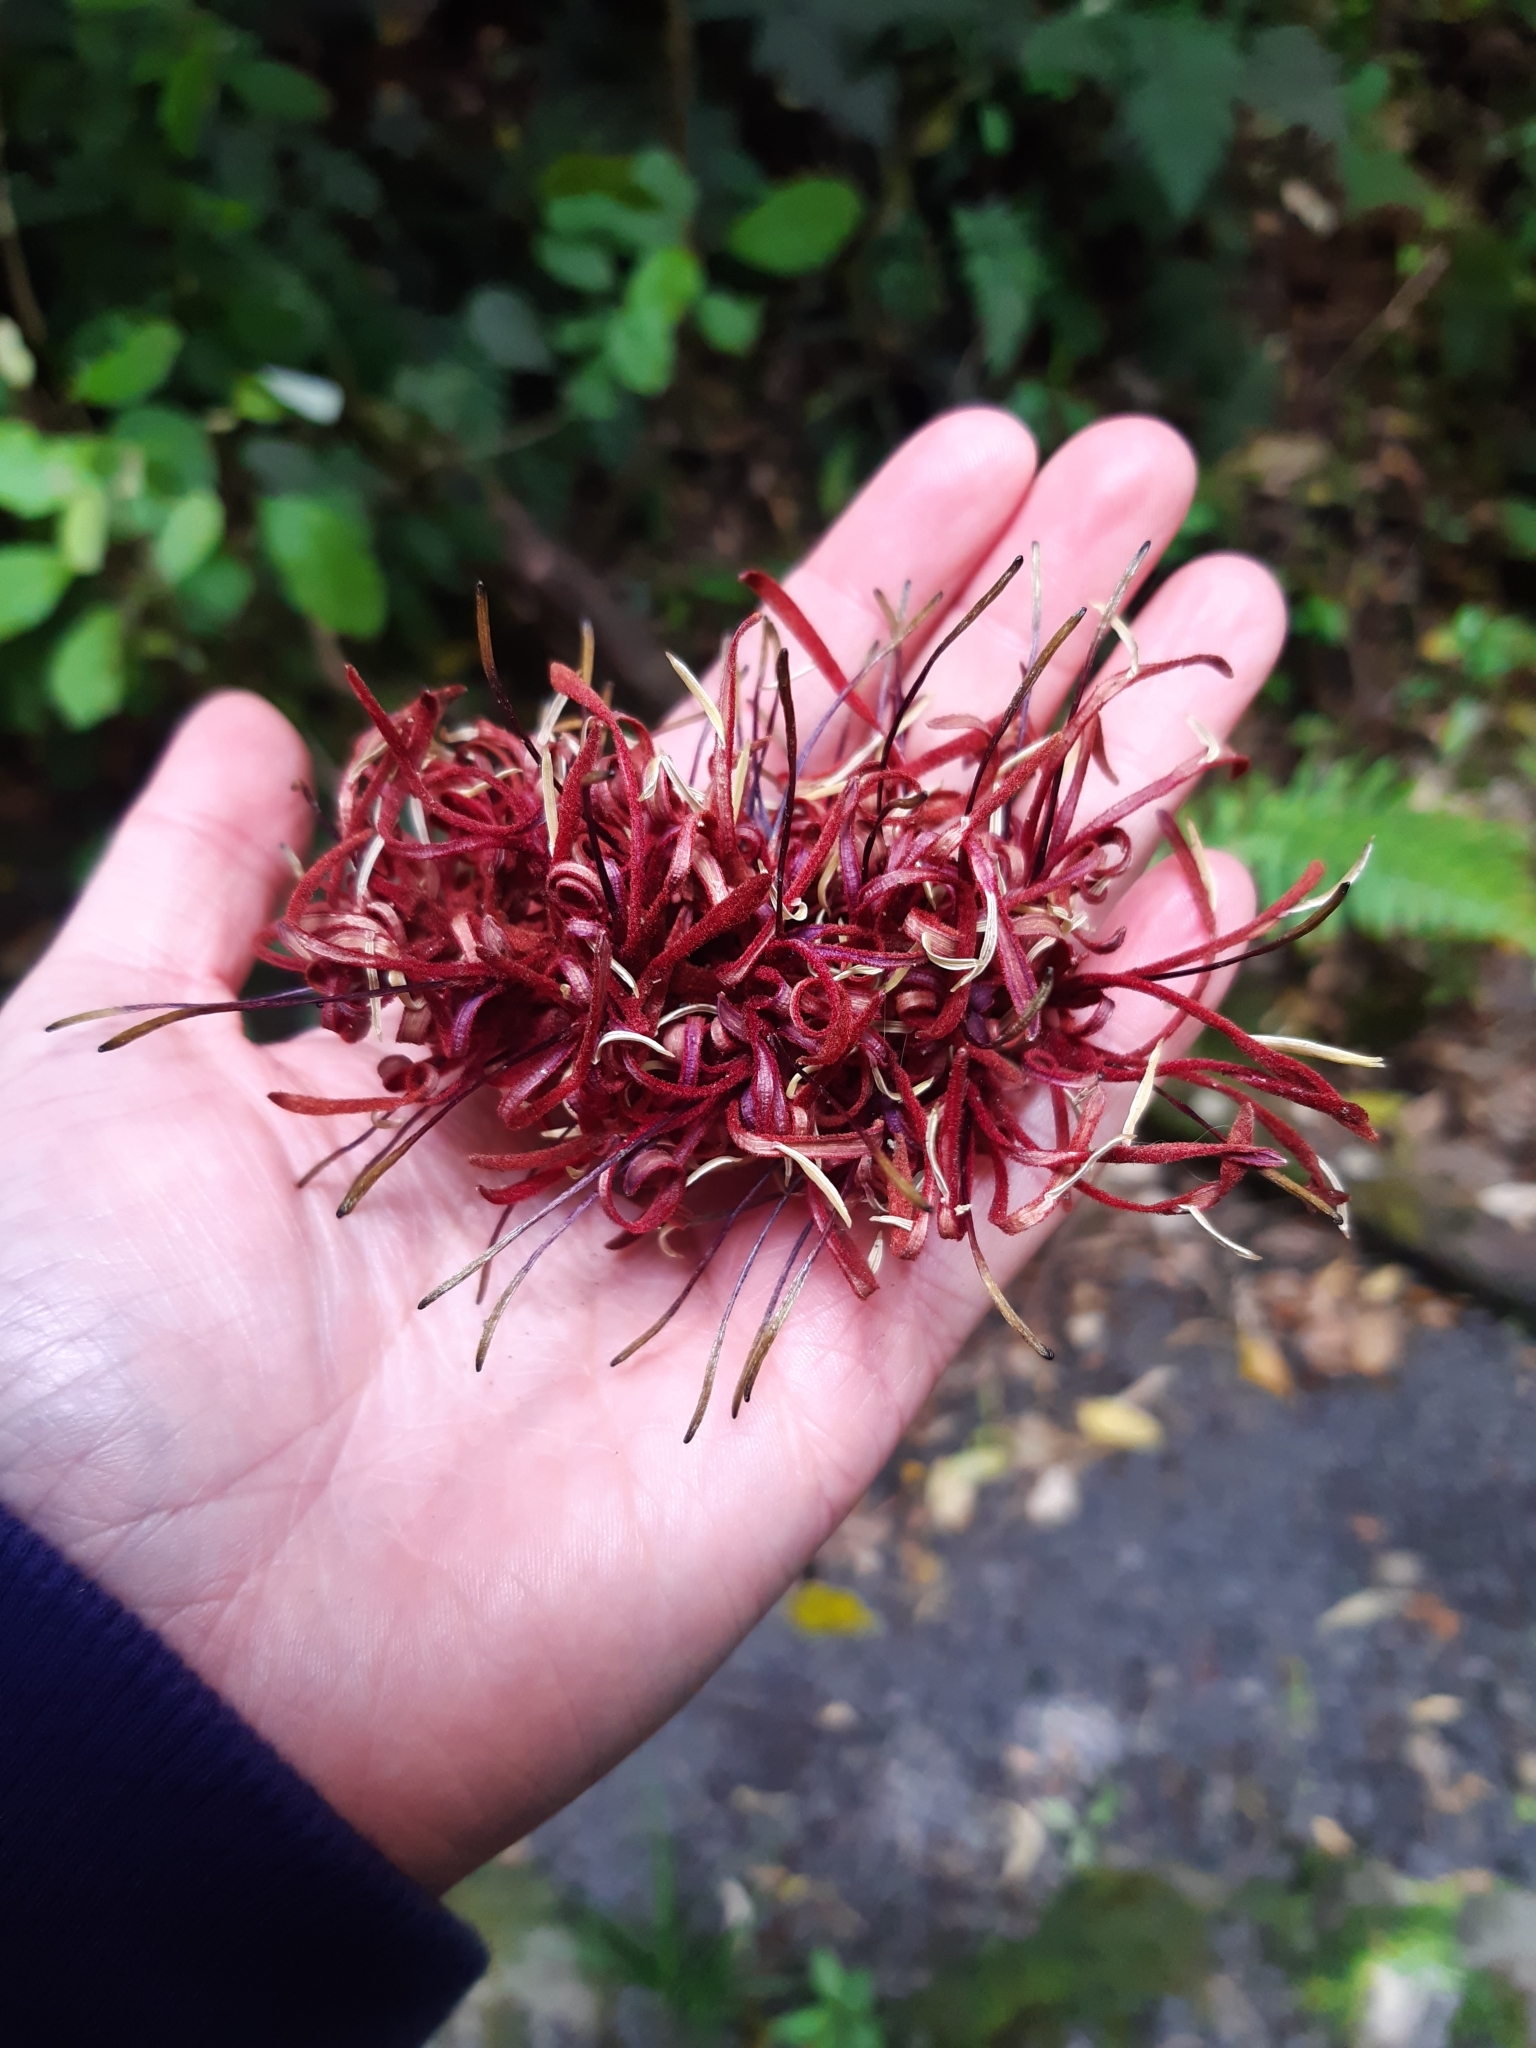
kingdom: Plantae
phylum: Tracheophyta
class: Magnoliopsida
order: Proteales
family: Proteaceae
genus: Knightia
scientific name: Knightia excelsa
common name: New zealand-honeysuckle
